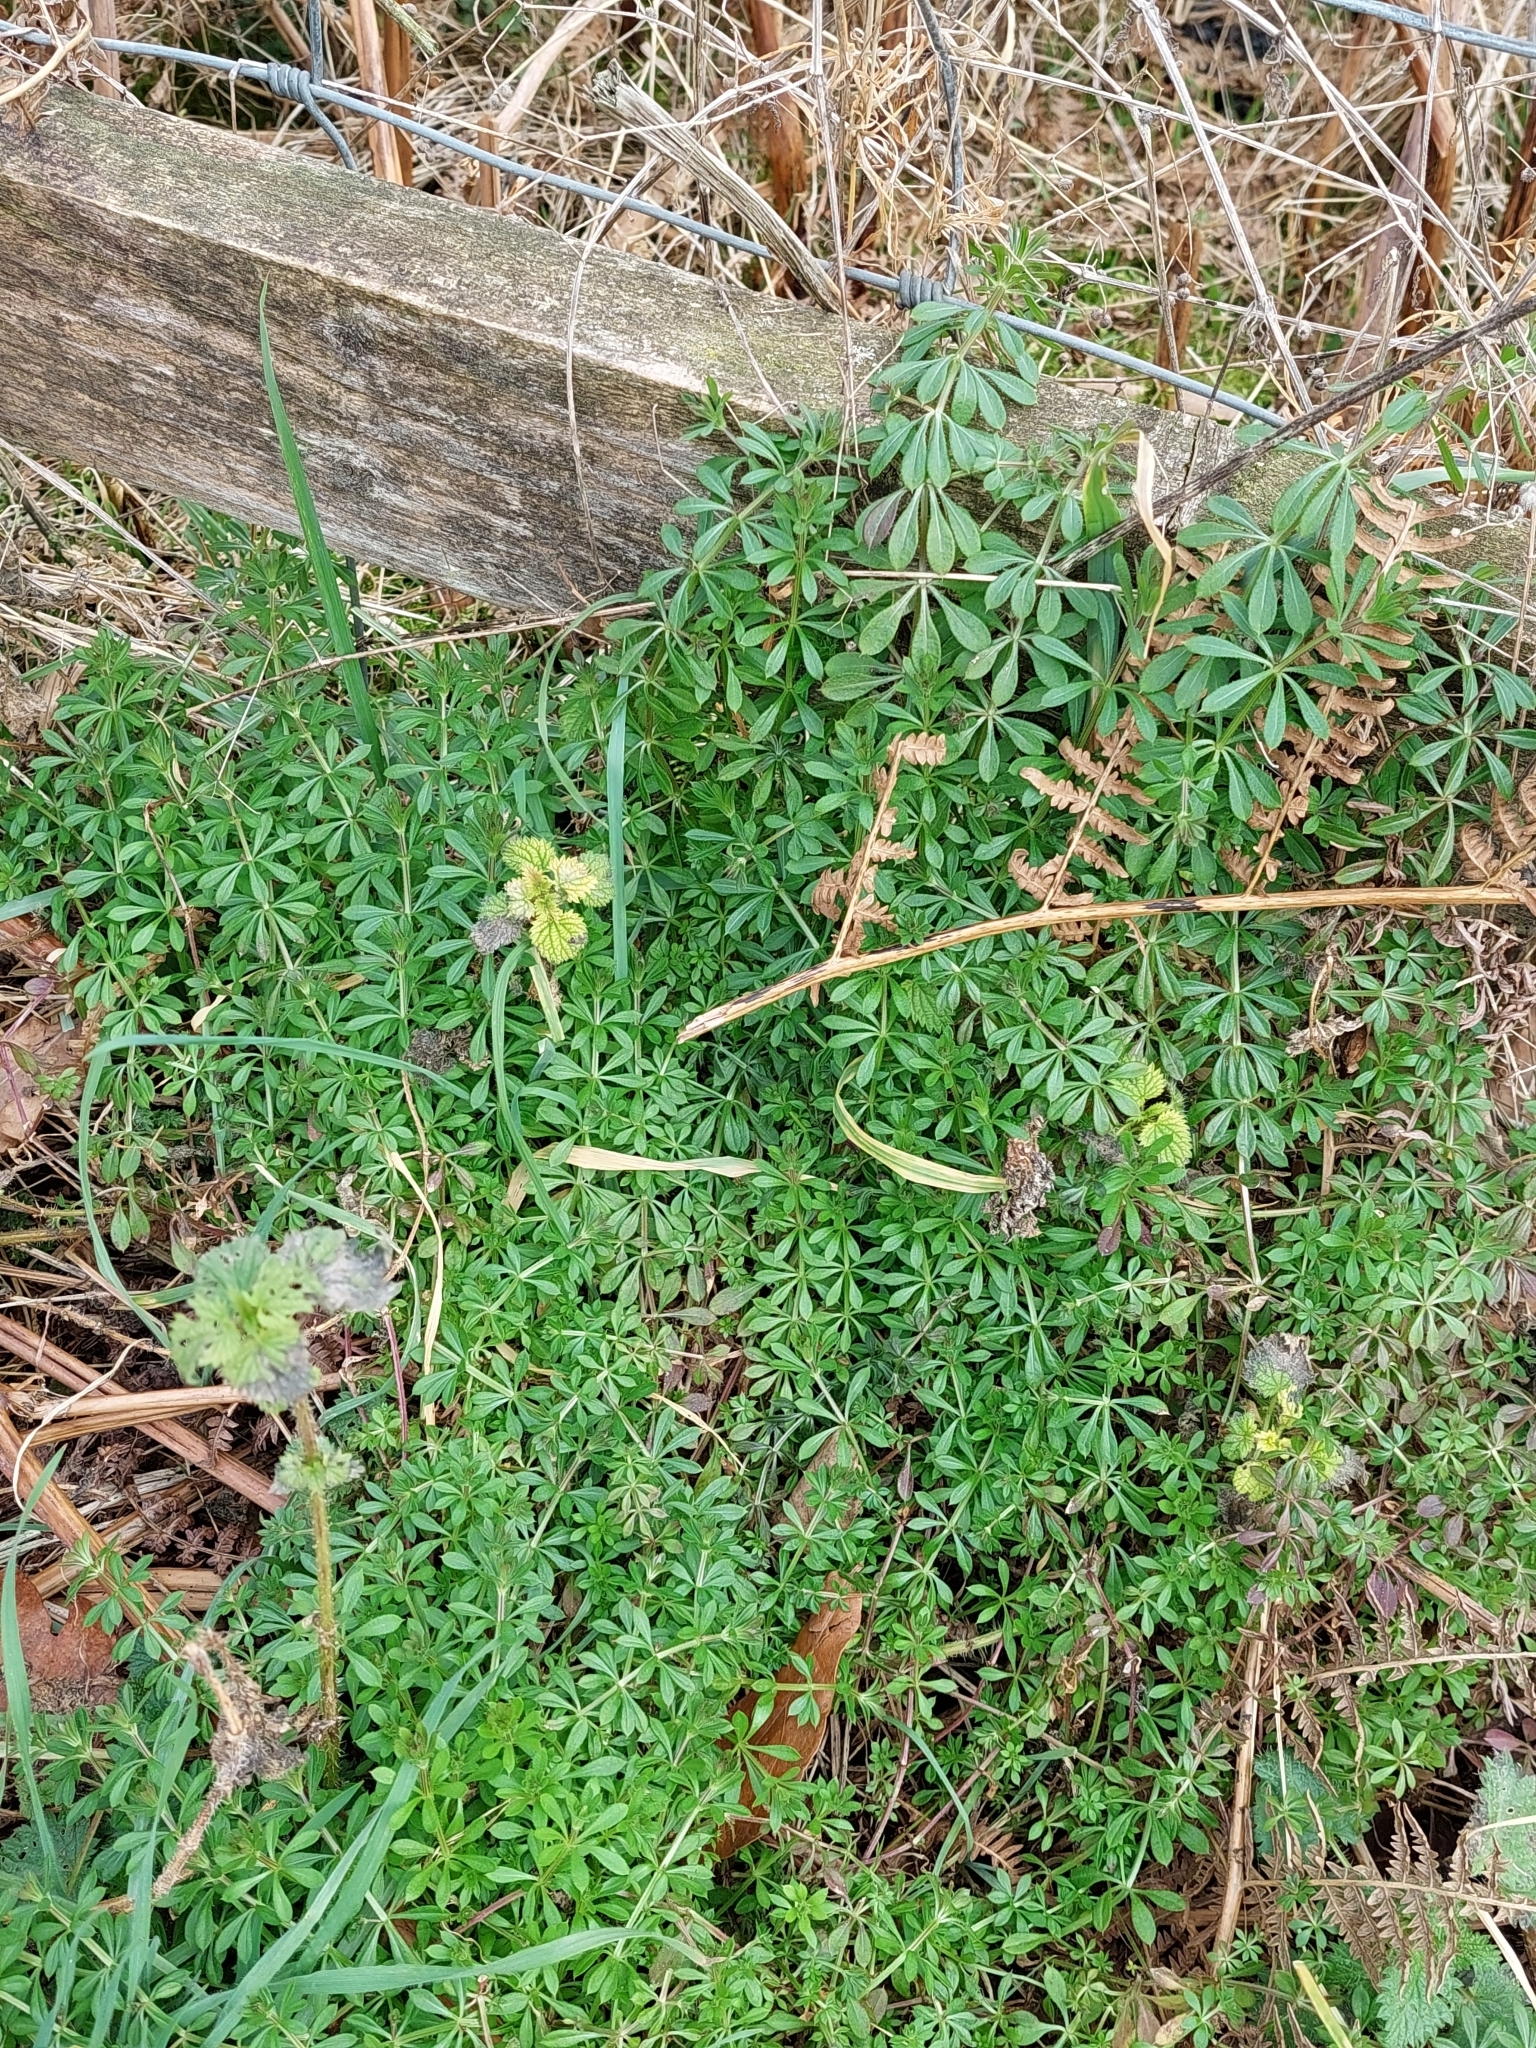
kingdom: Plantae
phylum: Tracheophyta
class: Magnoliopsida
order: Gentianales
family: Rubiaceae
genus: Galium
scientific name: Galium aparine
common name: Cleavers
